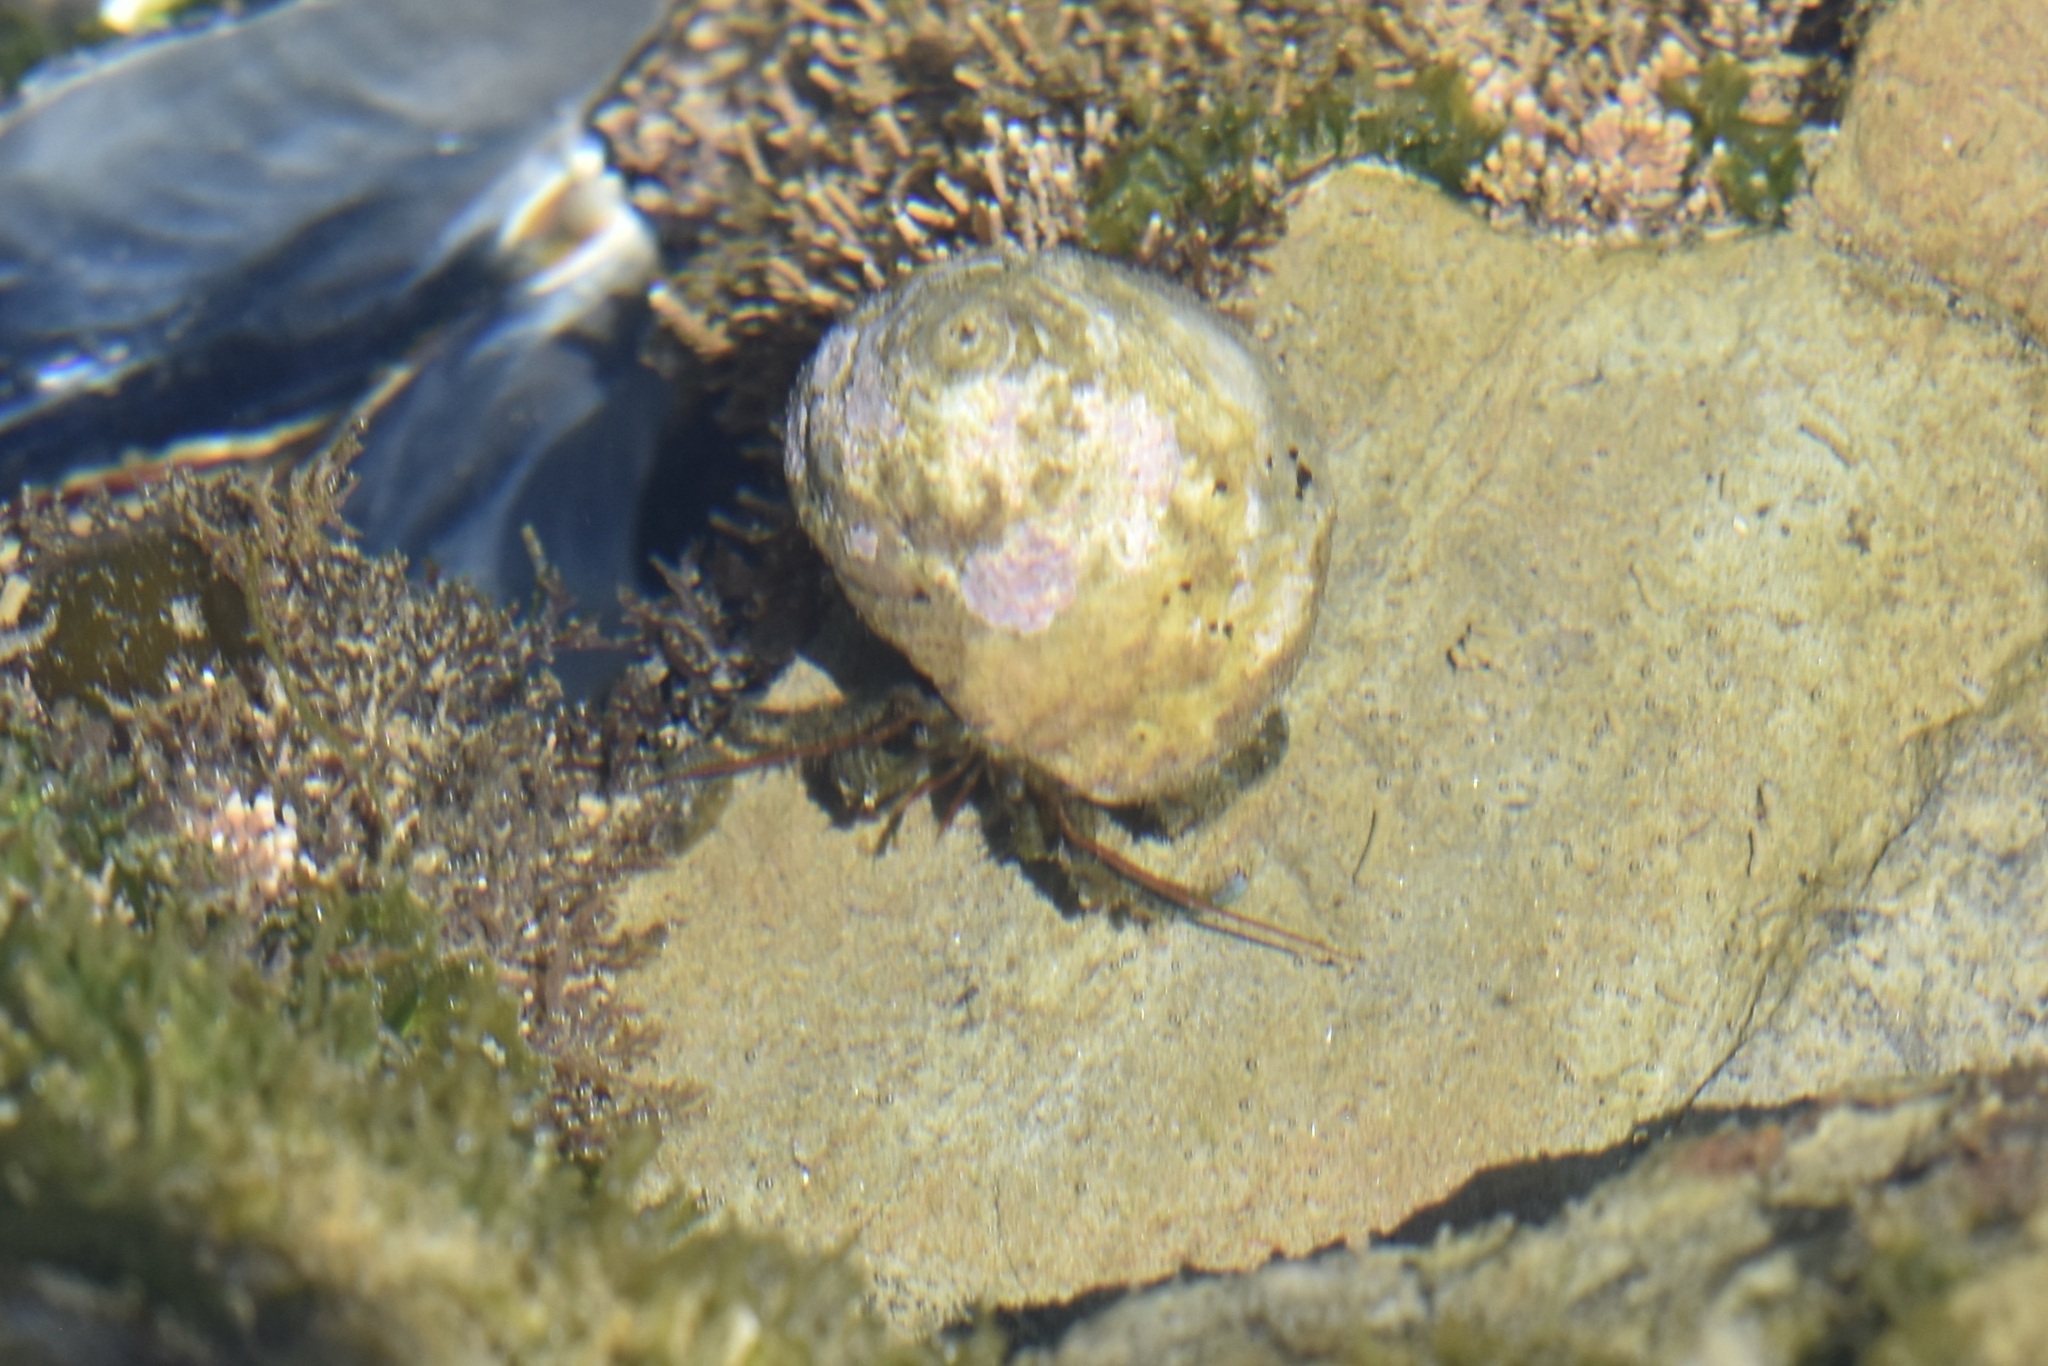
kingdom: Animalia
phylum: Arthropoda
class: Malacostraca
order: Decapoda
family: Paguridae
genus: Pagurus
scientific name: Pagurus samuelis
